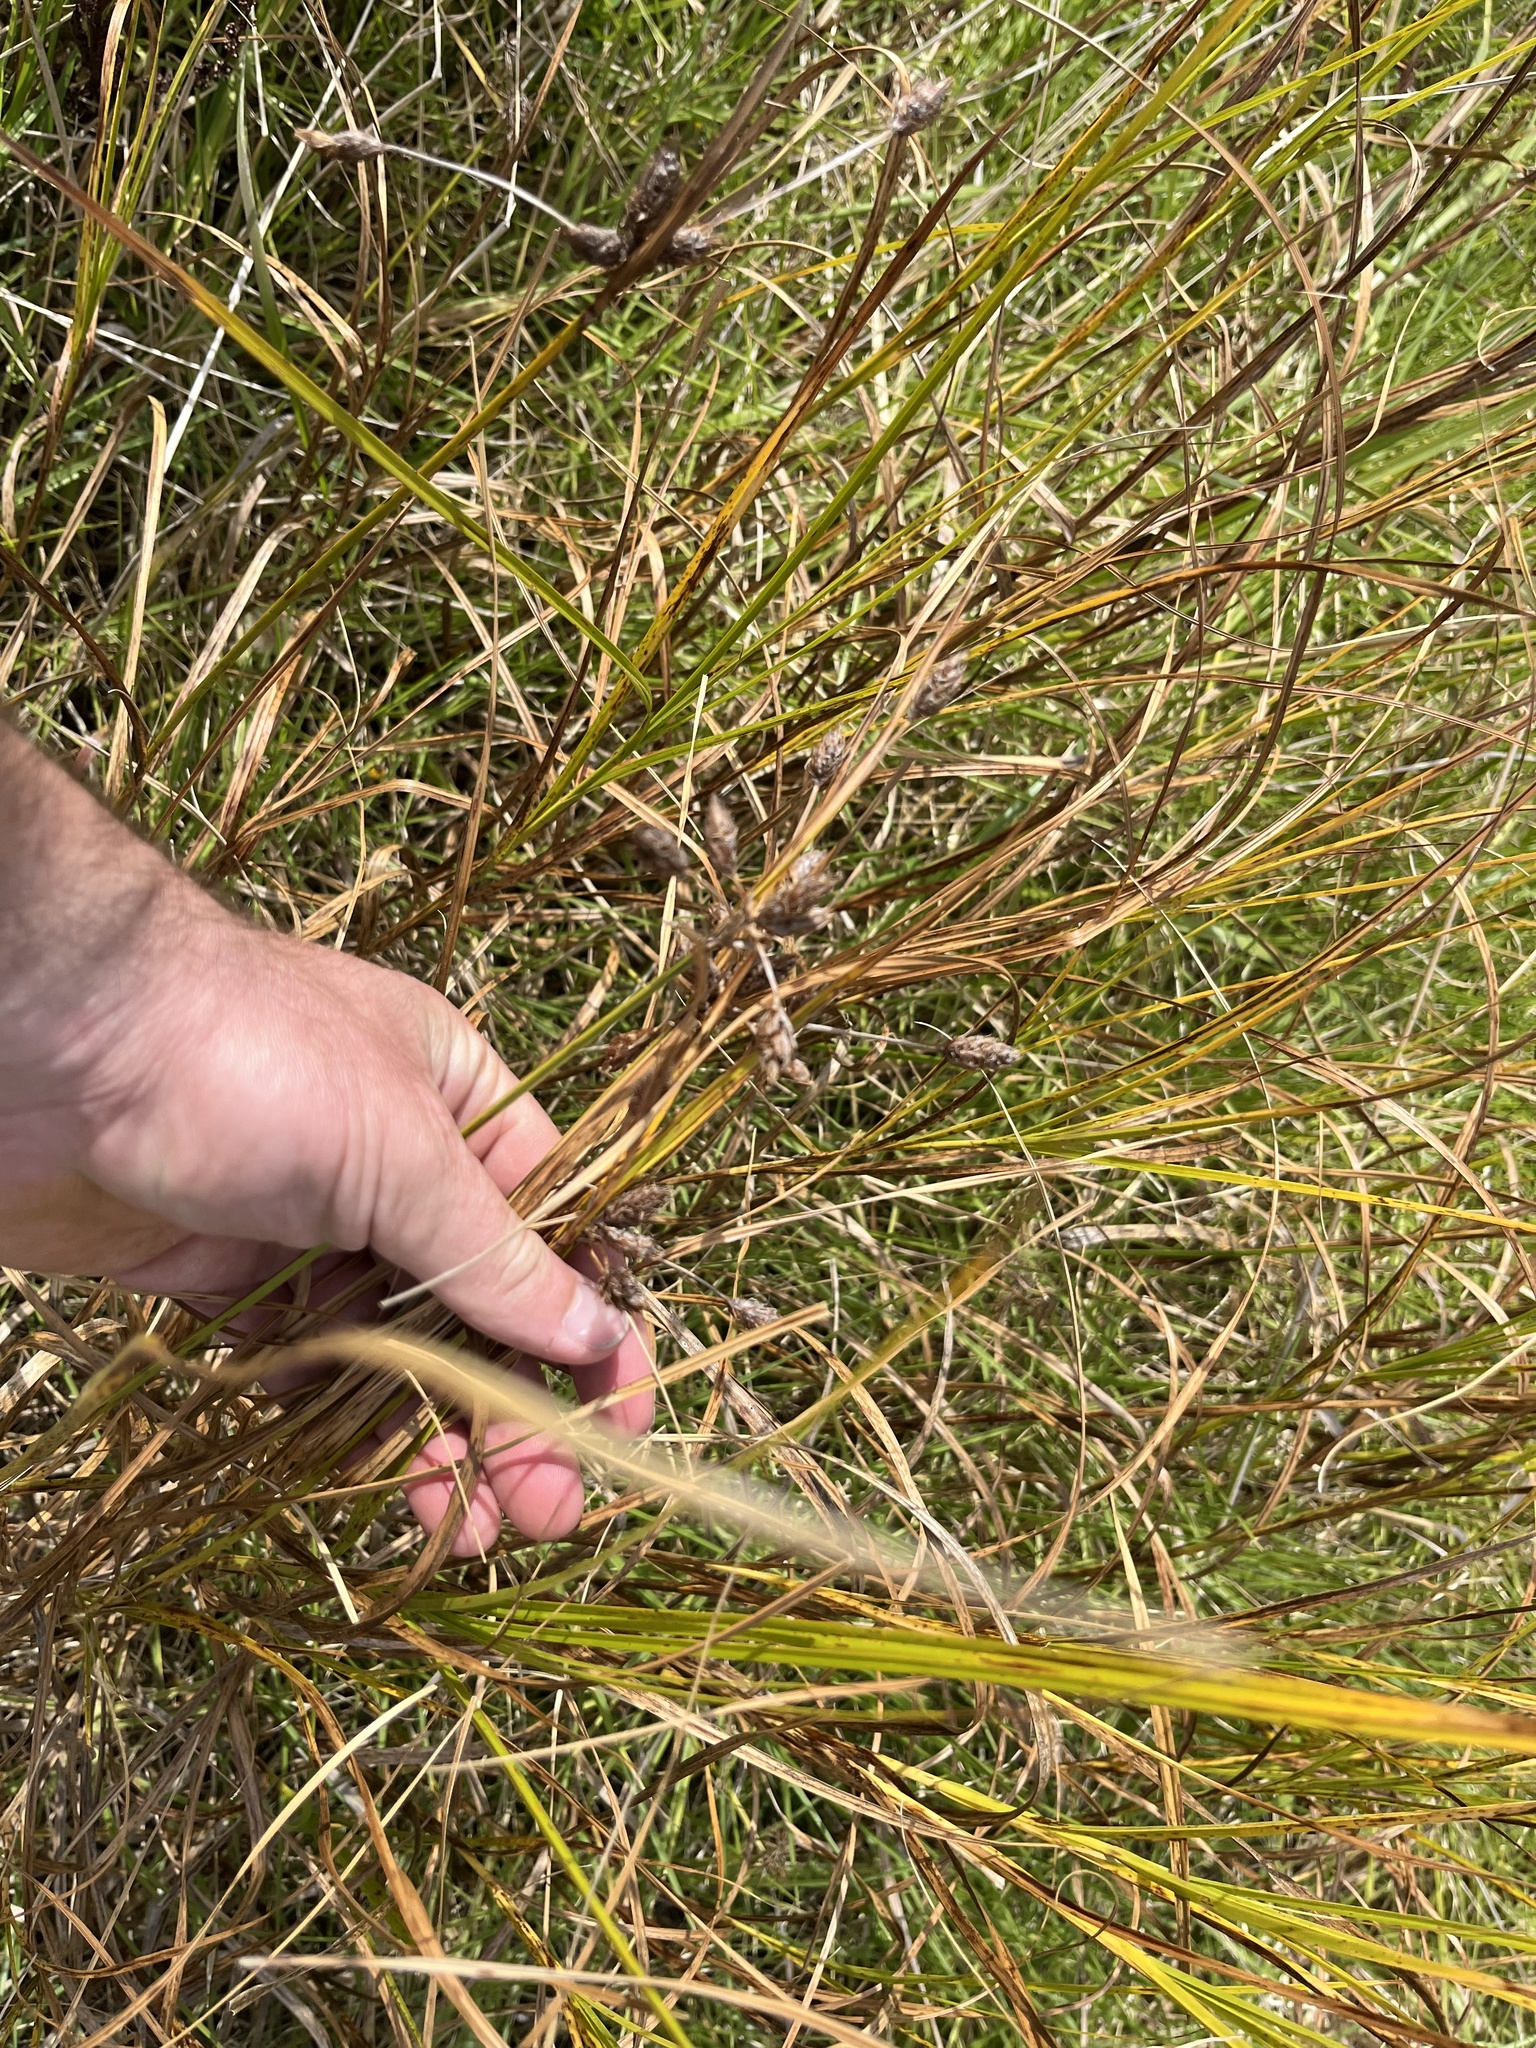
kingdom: Plantae
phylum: Tracheophyta
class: Liliopsida
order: Poales
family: Cyperaceae
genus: Bolboschoenus
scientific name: Bolboschoenus caldwellii
